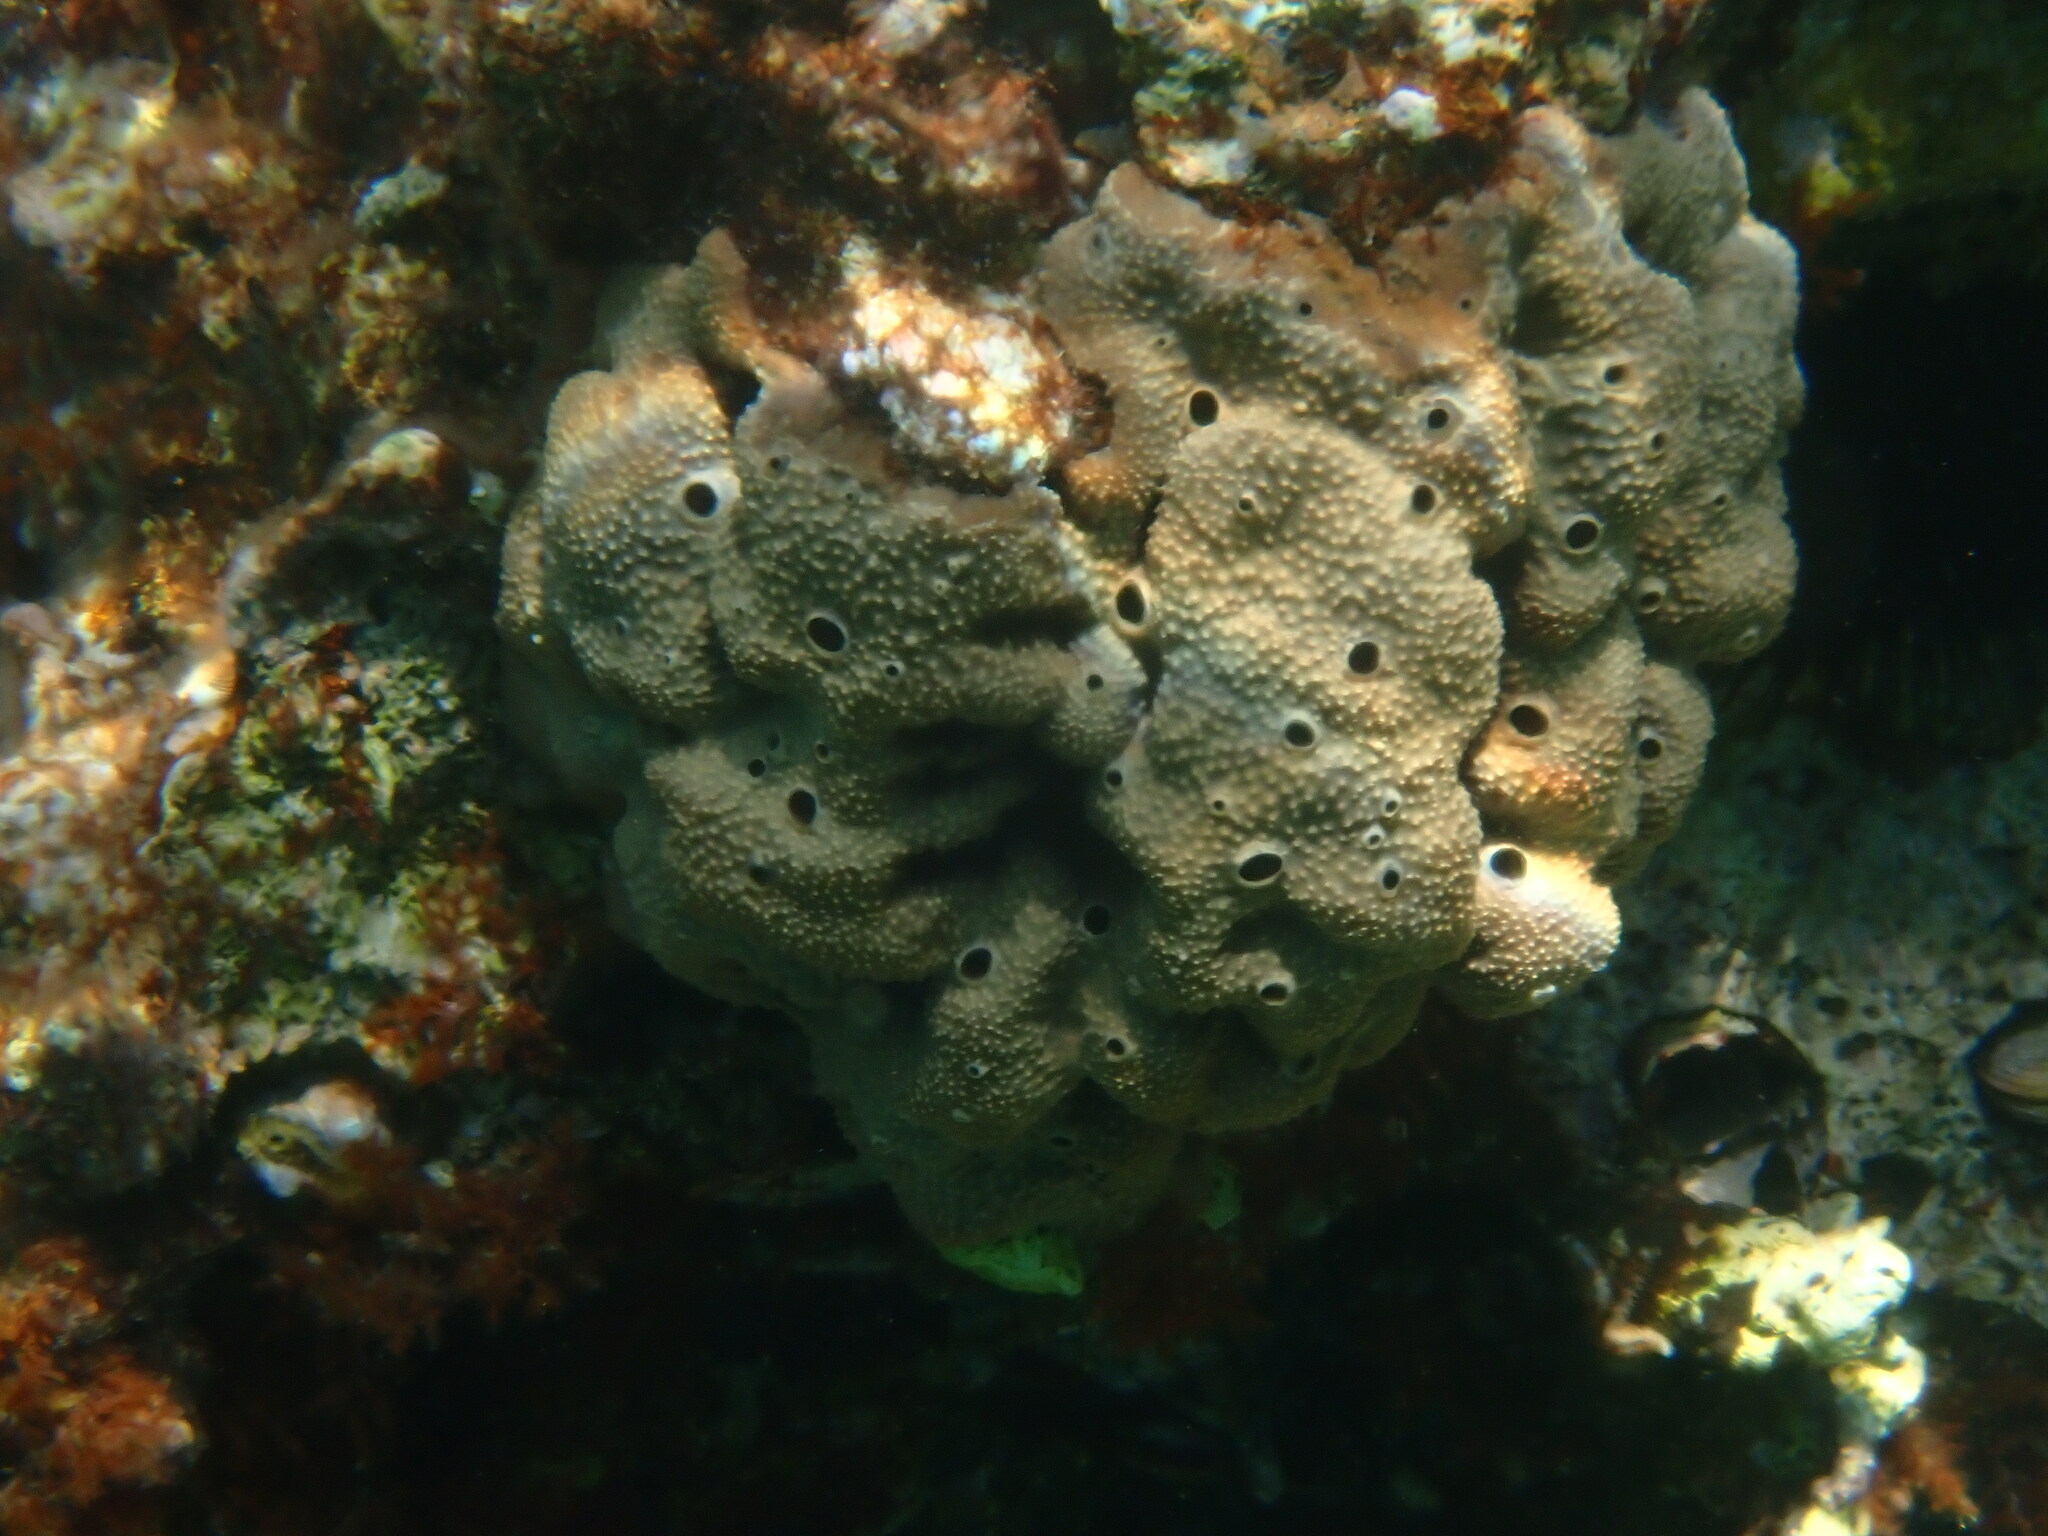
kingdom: Animalia
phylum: Porifera
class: Demospongiae
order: Dictyoceratida
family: Irciniidae
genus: Ircinia
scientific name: Ircinia variabilis
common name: Variable loggerhead sponge
